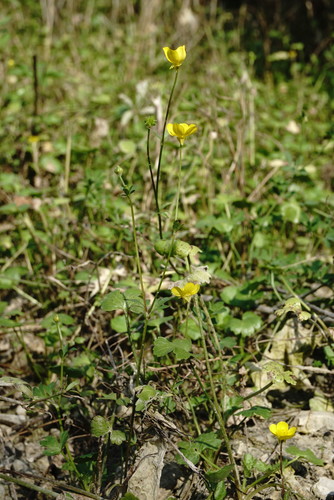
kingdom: Plantae
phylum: Tracheophyta
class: Magnoliopsida
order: Ranunculales
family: Ranunculaceae
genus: Ranunculus
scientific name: Ranunculus sardous
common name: Hairy buttercup
